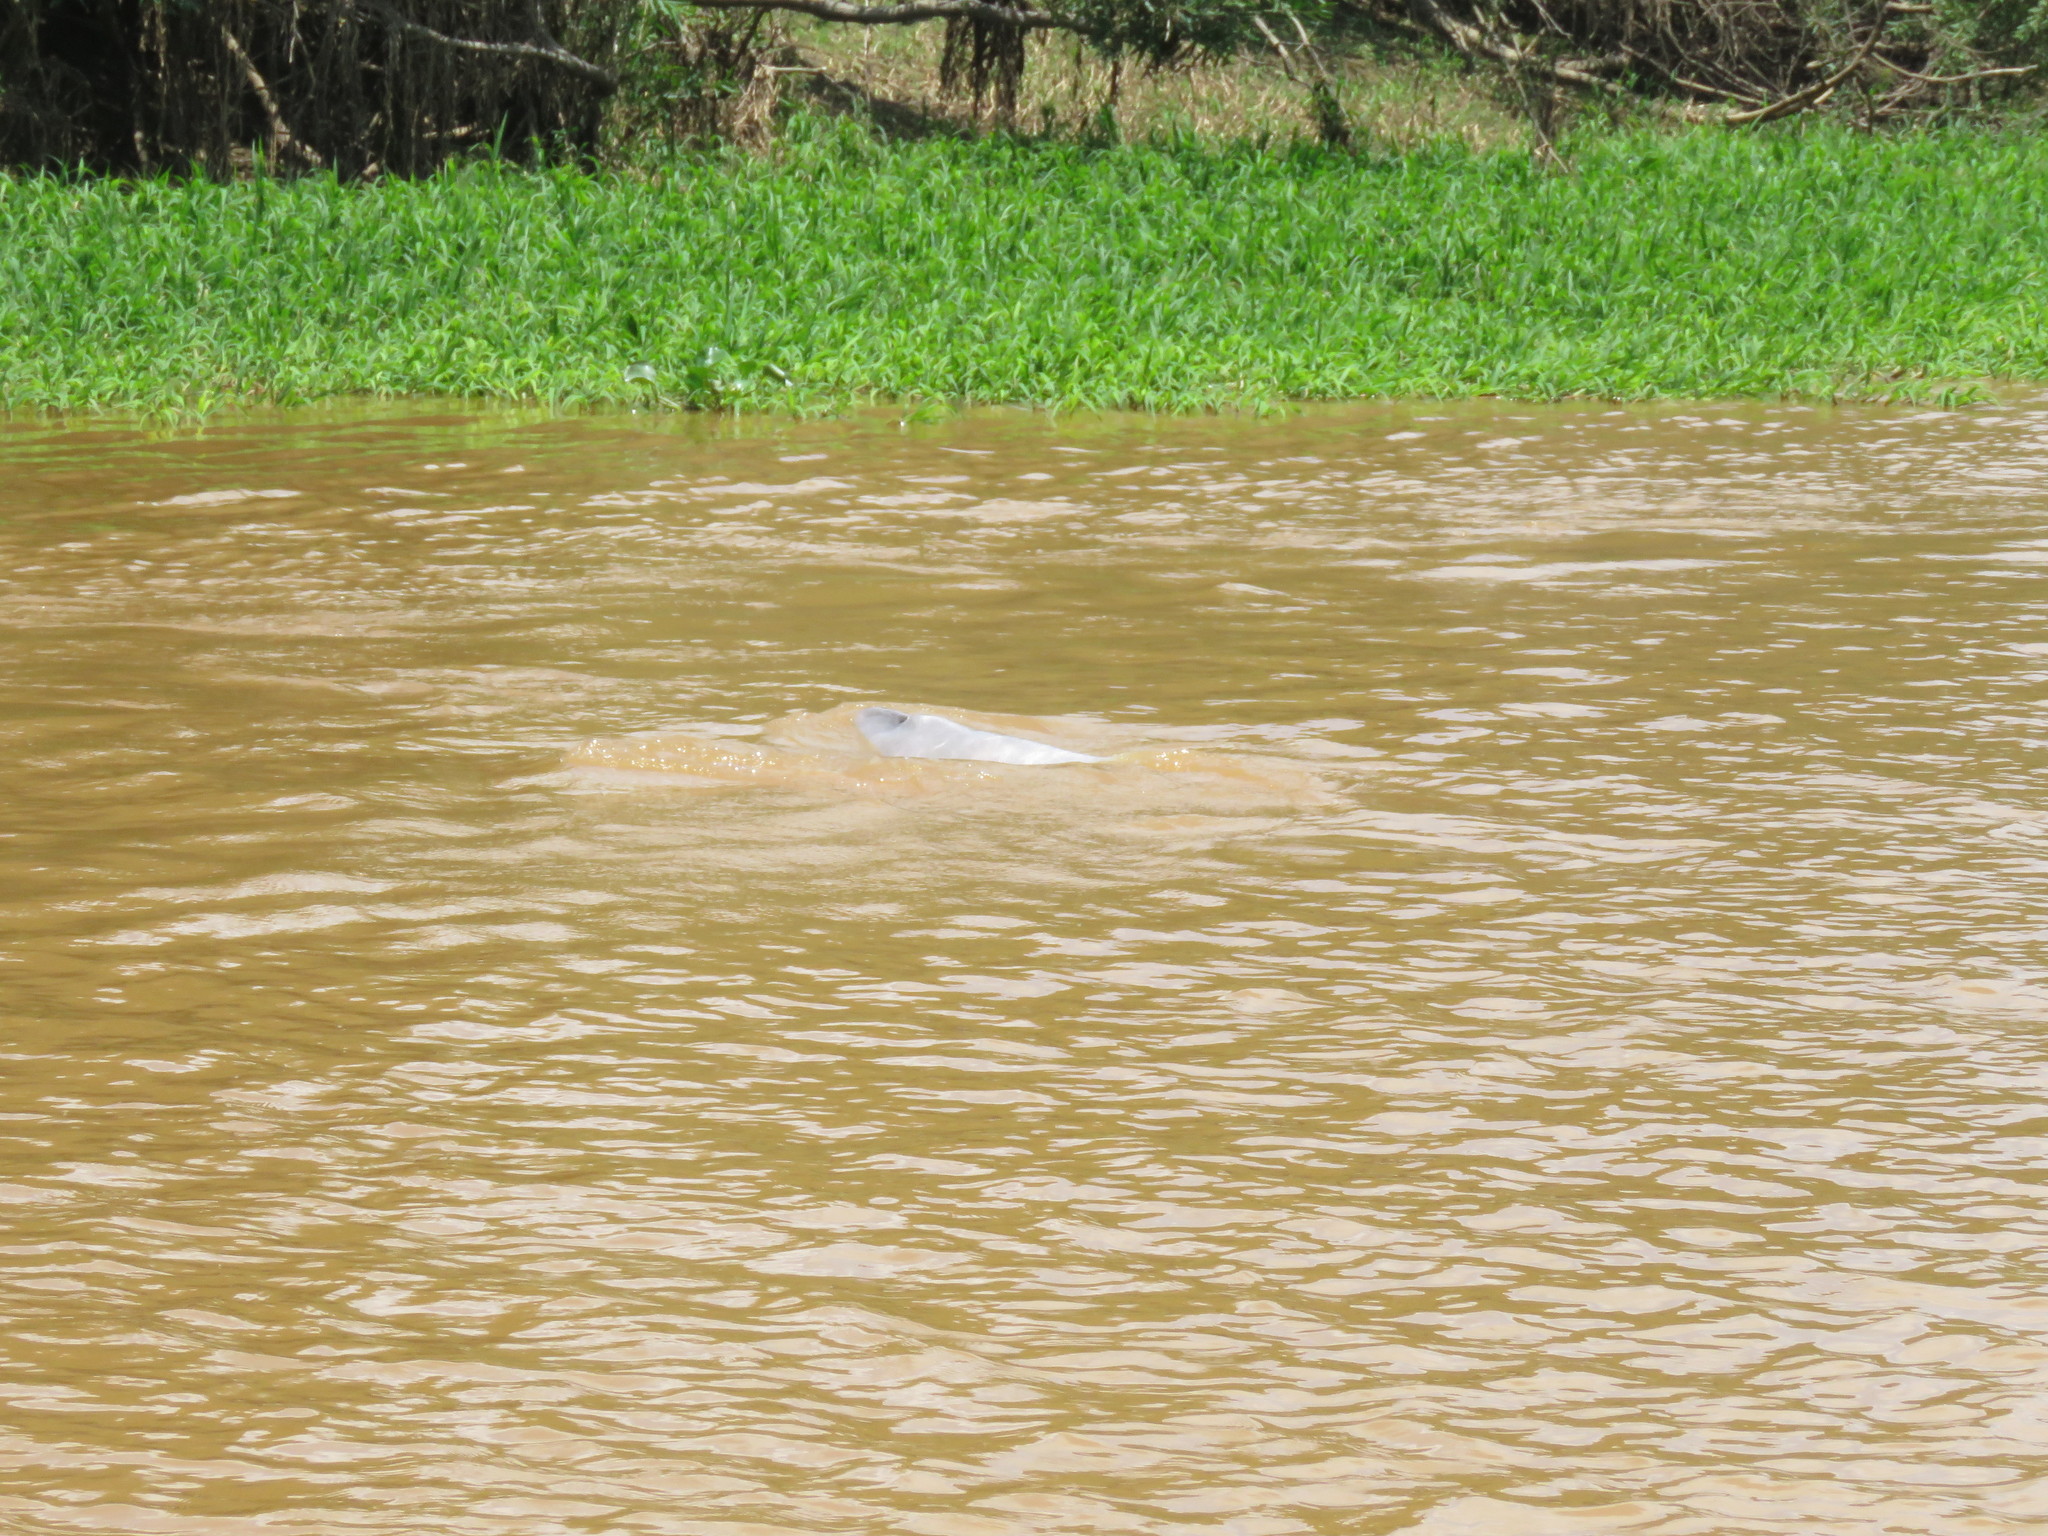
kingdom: Animalia
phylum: Chordata
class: Mammalia
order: Cetacea
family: Iniidae
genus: Inia
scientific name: Inia geoffrensis
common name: Amazon river dolphin
